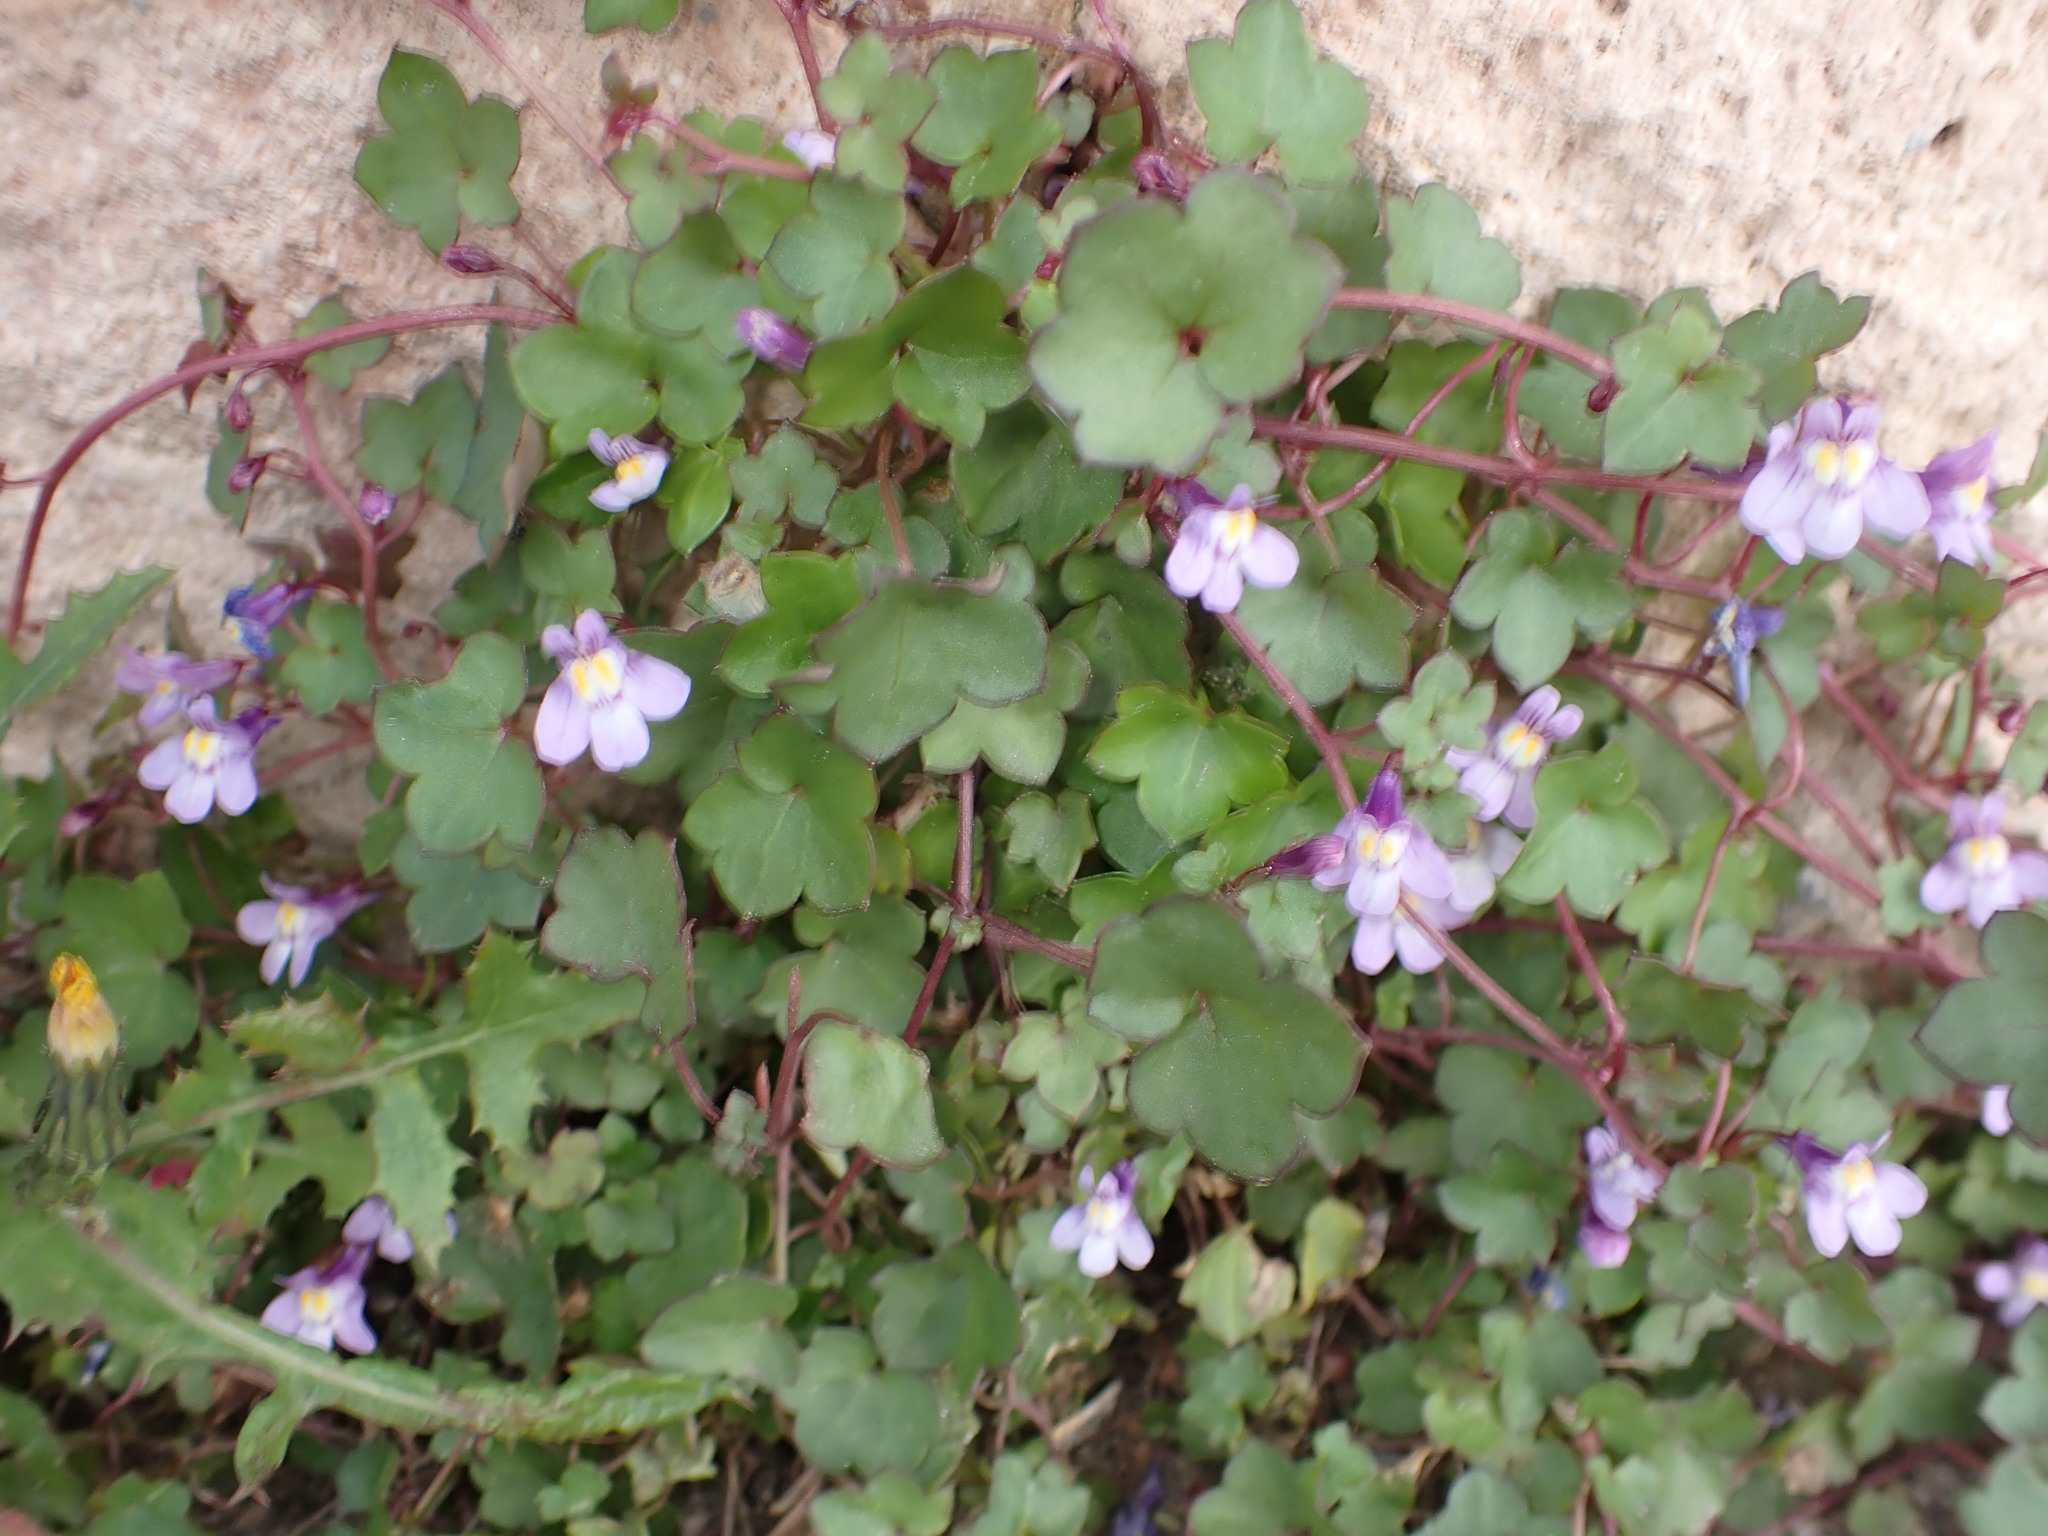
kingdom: Plantae
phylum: Tracheophyta
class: Magnoliopsida
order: Lamiales
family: Plantaginaceae
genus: Cymbalaria
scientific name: Cymbalaria muralis
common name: Ivy-leaved toadflax
